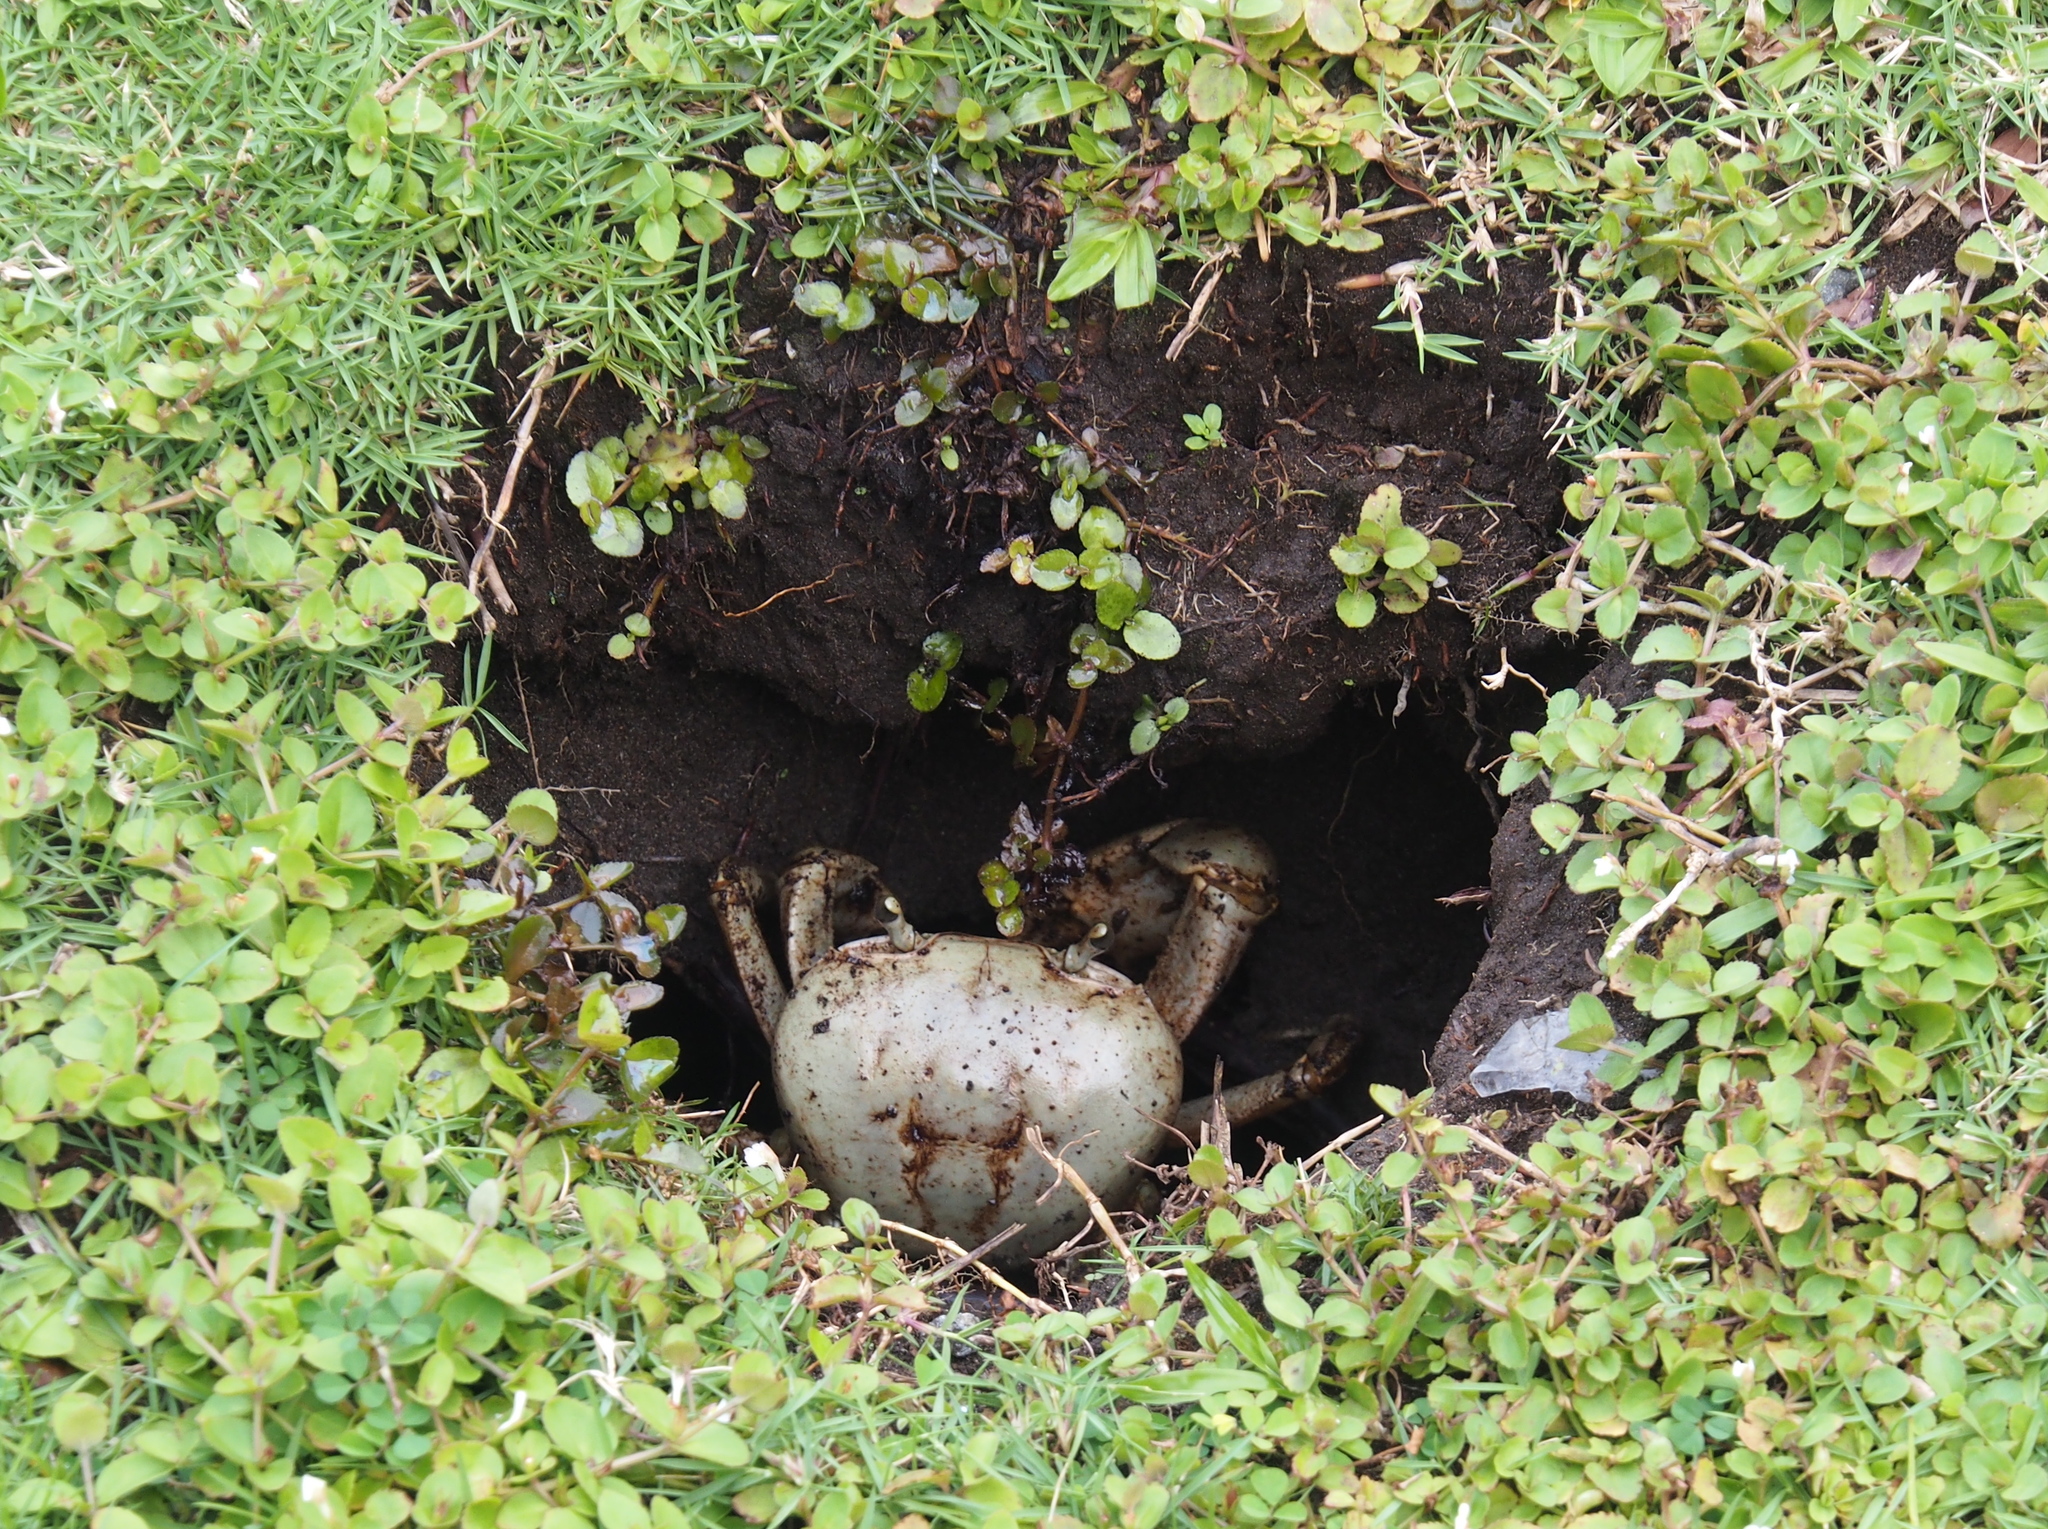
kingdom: Animalia
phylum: Arthropoda
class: Malacostraca
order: Decapoda
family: Gecarcinidae
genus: Cardisoma
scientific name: Cardisoma guanhumi
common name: Great land crab
